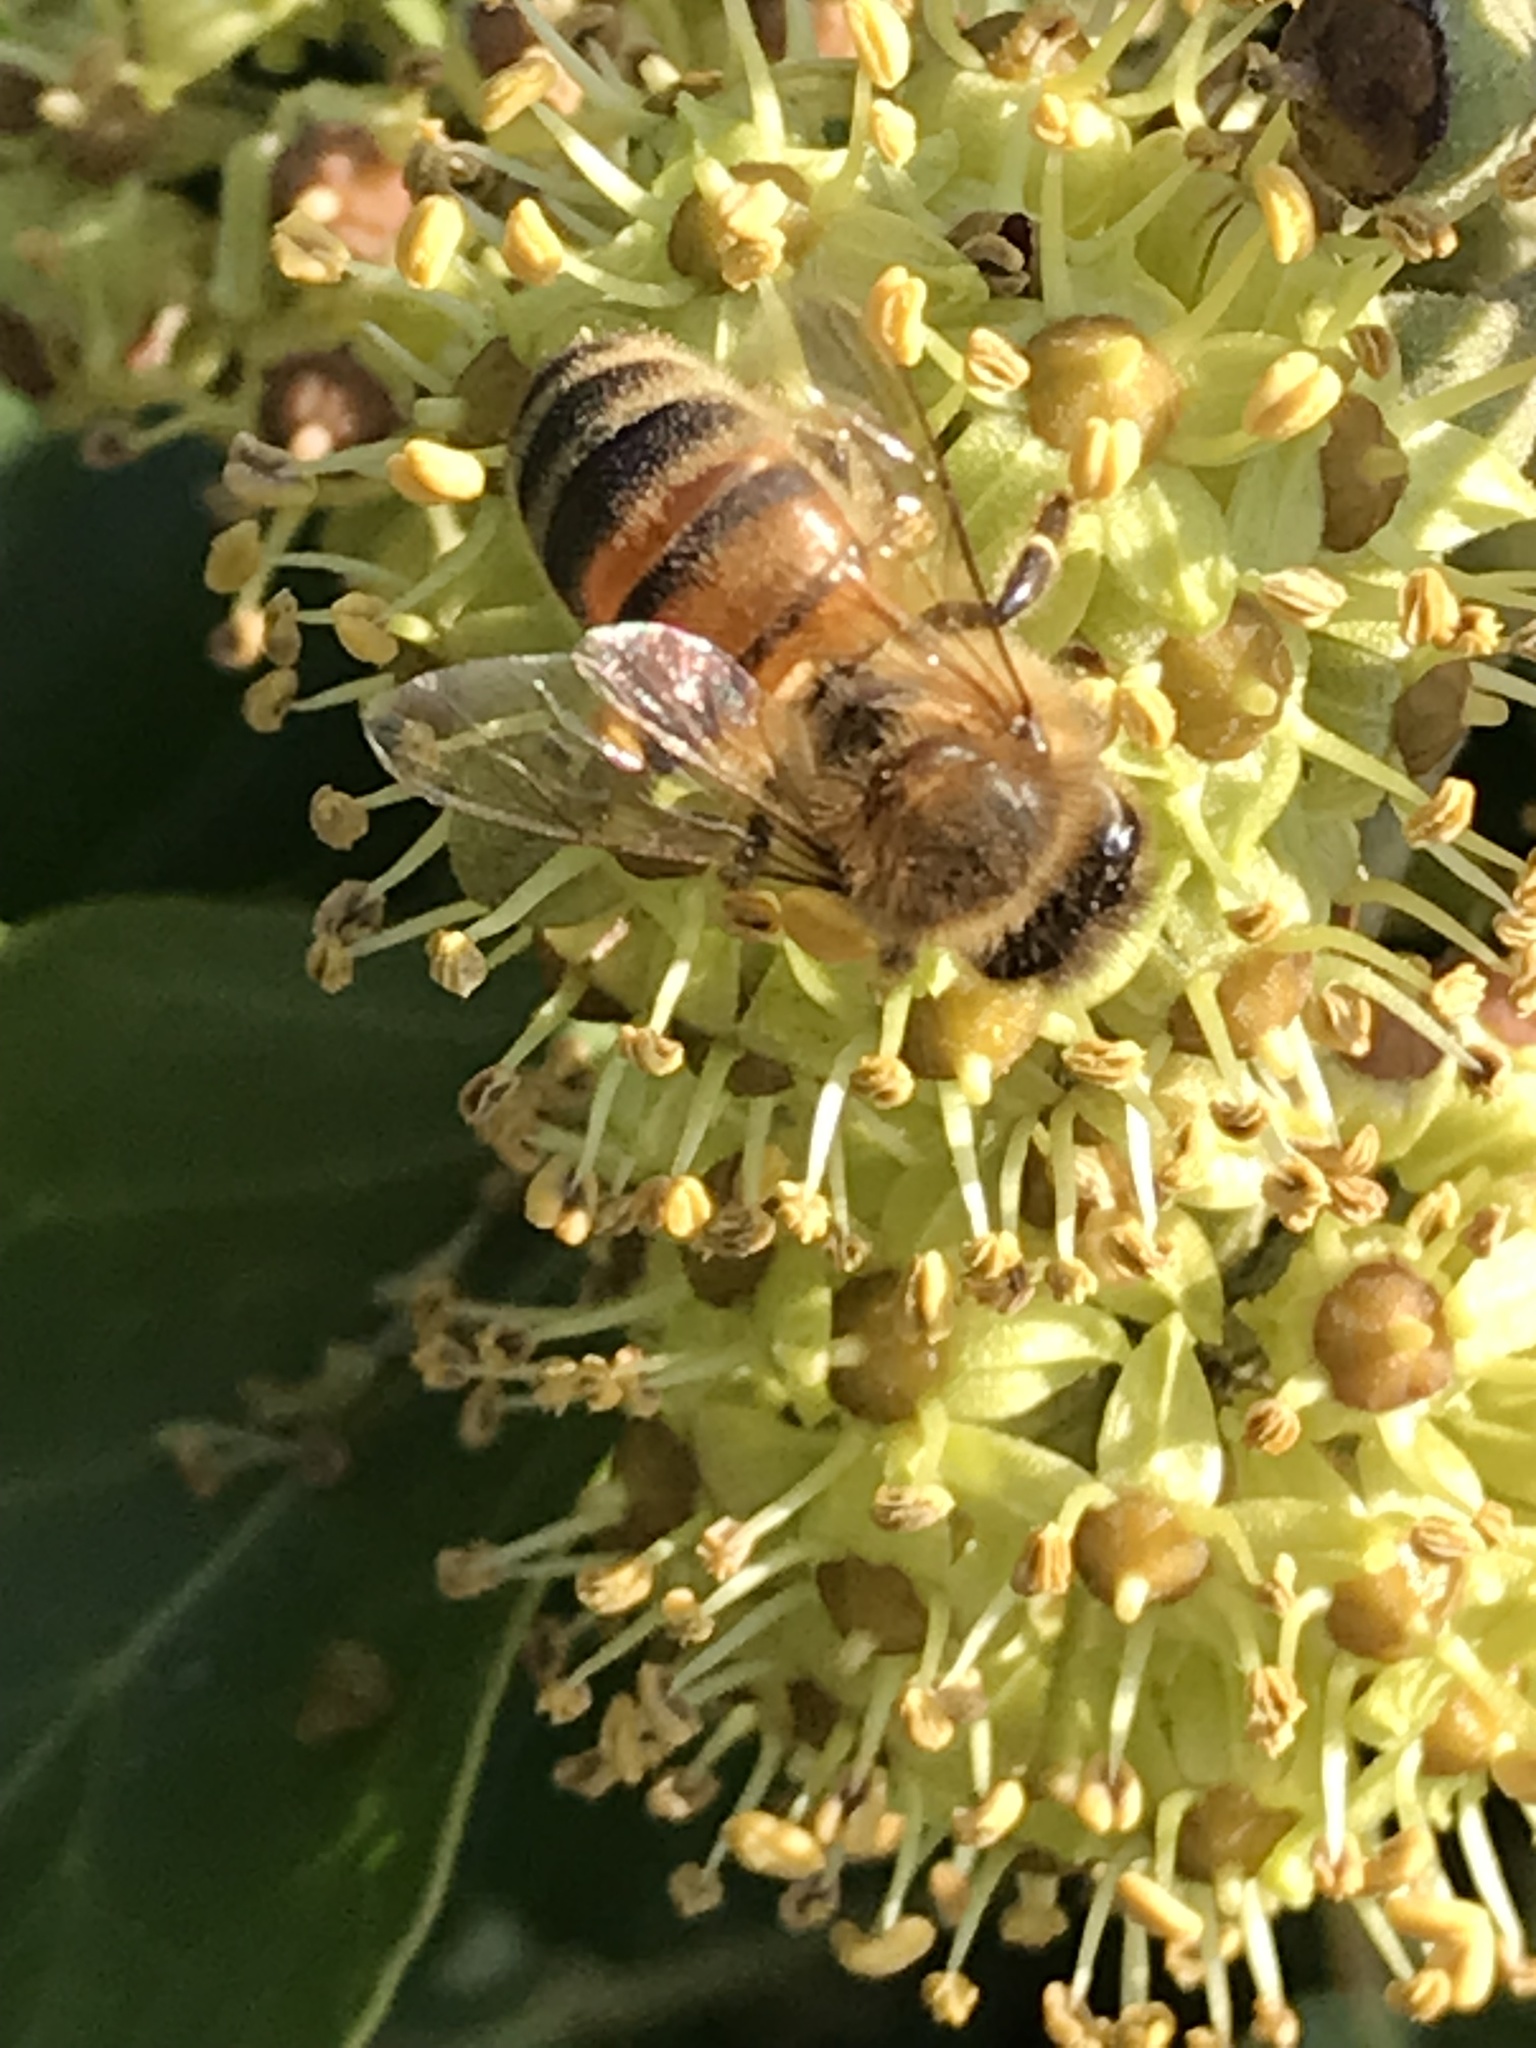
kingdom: Animalia
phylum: Arthropoda
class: Insecta
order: Hymenoptera
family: Apidae
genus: Apis
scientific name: Apis mellifera
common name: Honey bee
